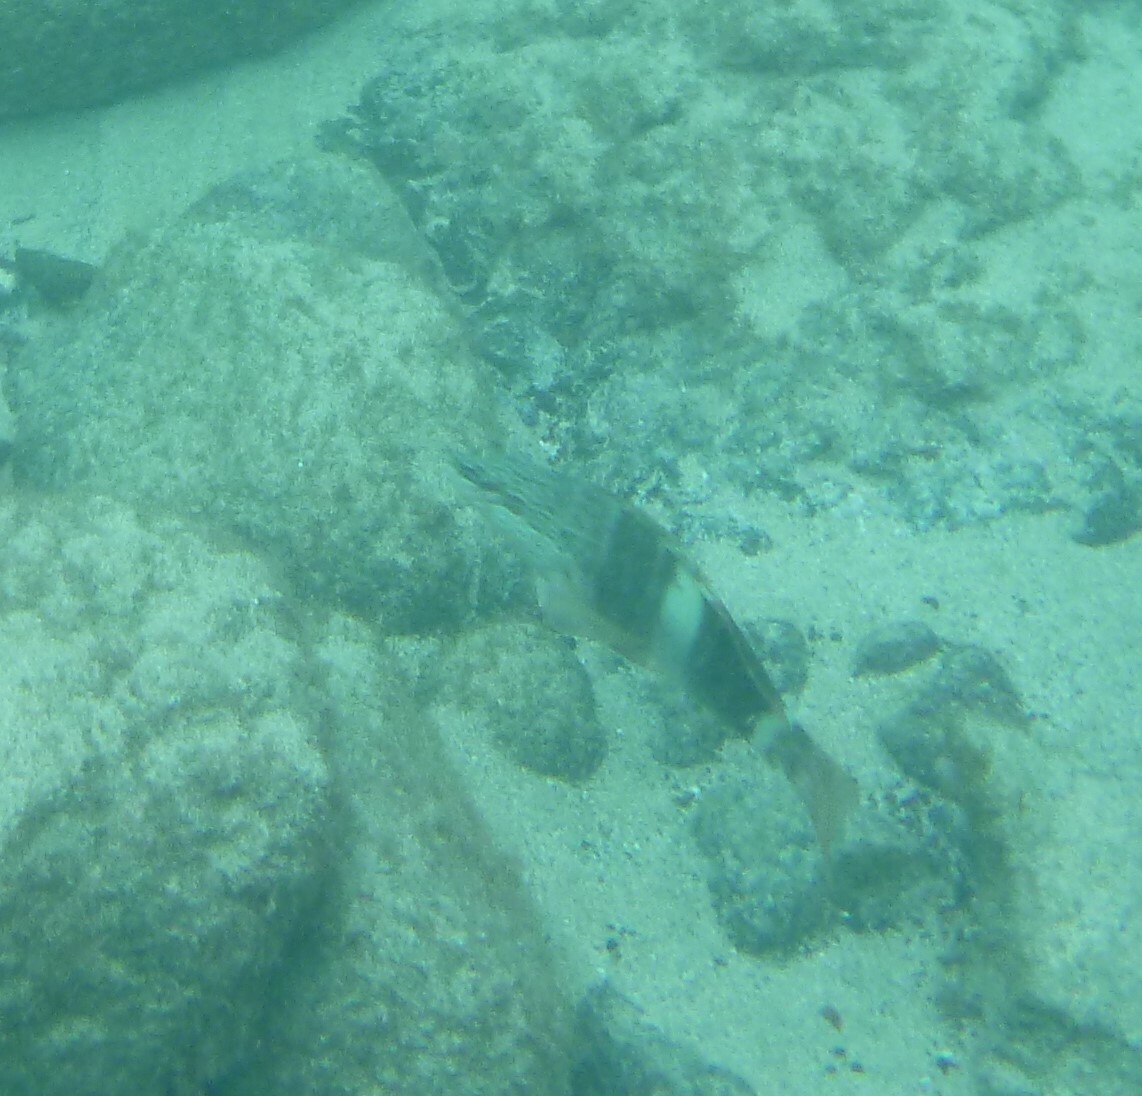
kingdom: Animalia
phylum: Chordata
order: Perciformes
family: Serranidae
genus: Serranus
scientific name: Serranus scriba
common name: Painted comber
